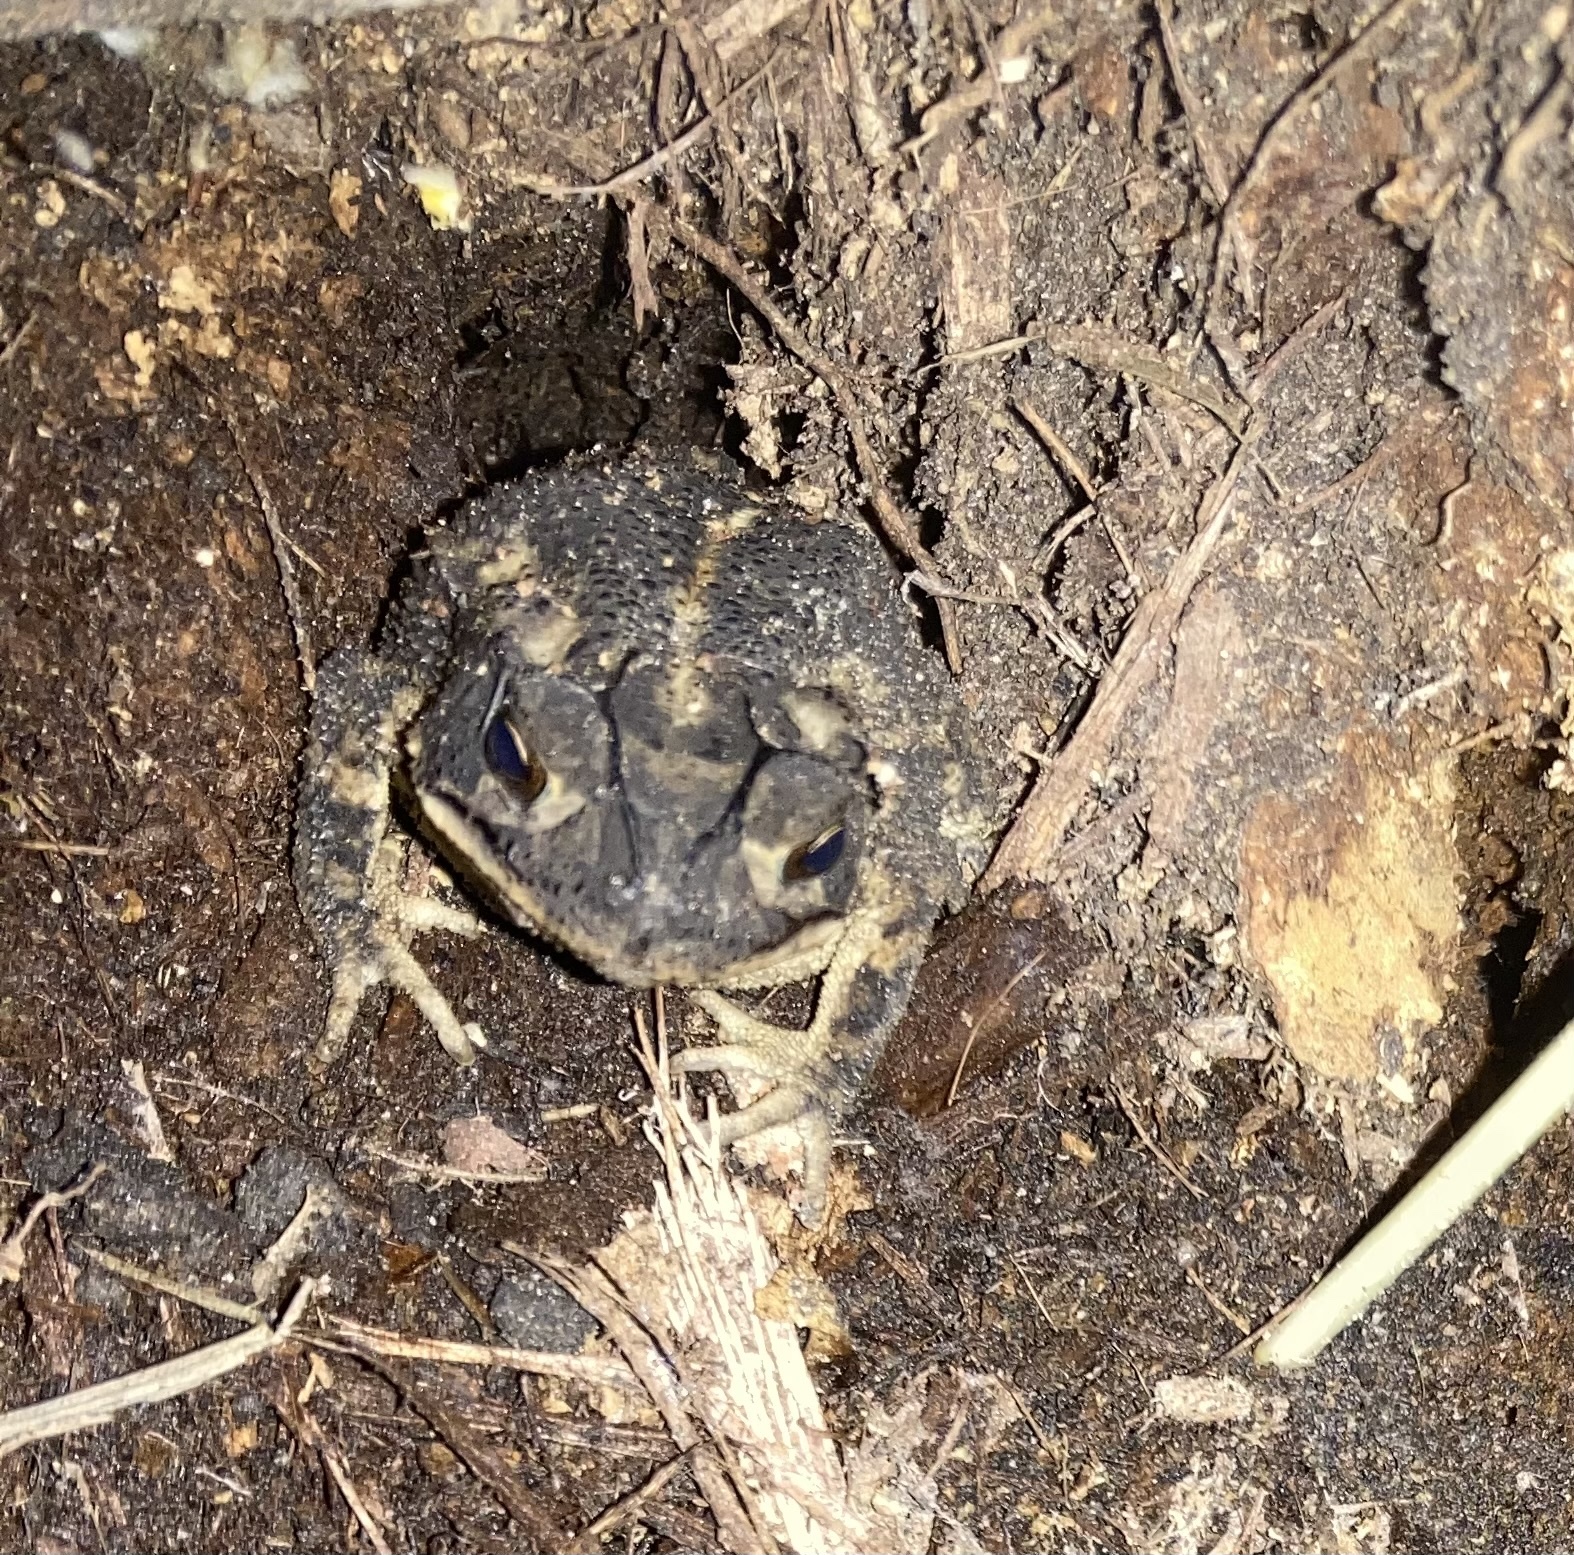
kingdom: Animalia
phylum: Chordata
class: Amphibia
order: Anura
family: Bufonidae
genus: Incilius
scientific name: Incilius nebulifer
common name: Gulf coast toad
